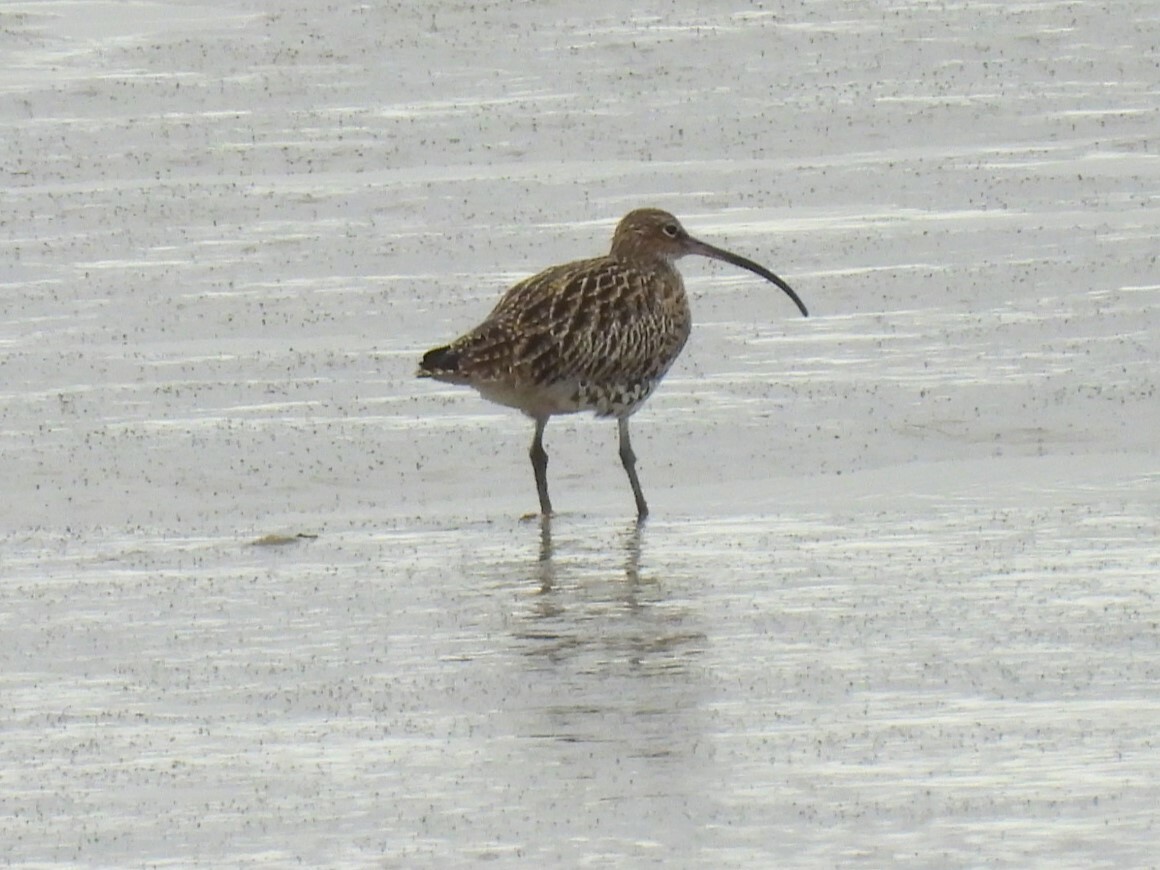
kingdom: Animalia
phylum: Chordata
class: Aves
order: Charadriiformes
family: Scolopacidae
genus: Numenius
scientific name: Numenius arquata
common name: Eurasian curlew
